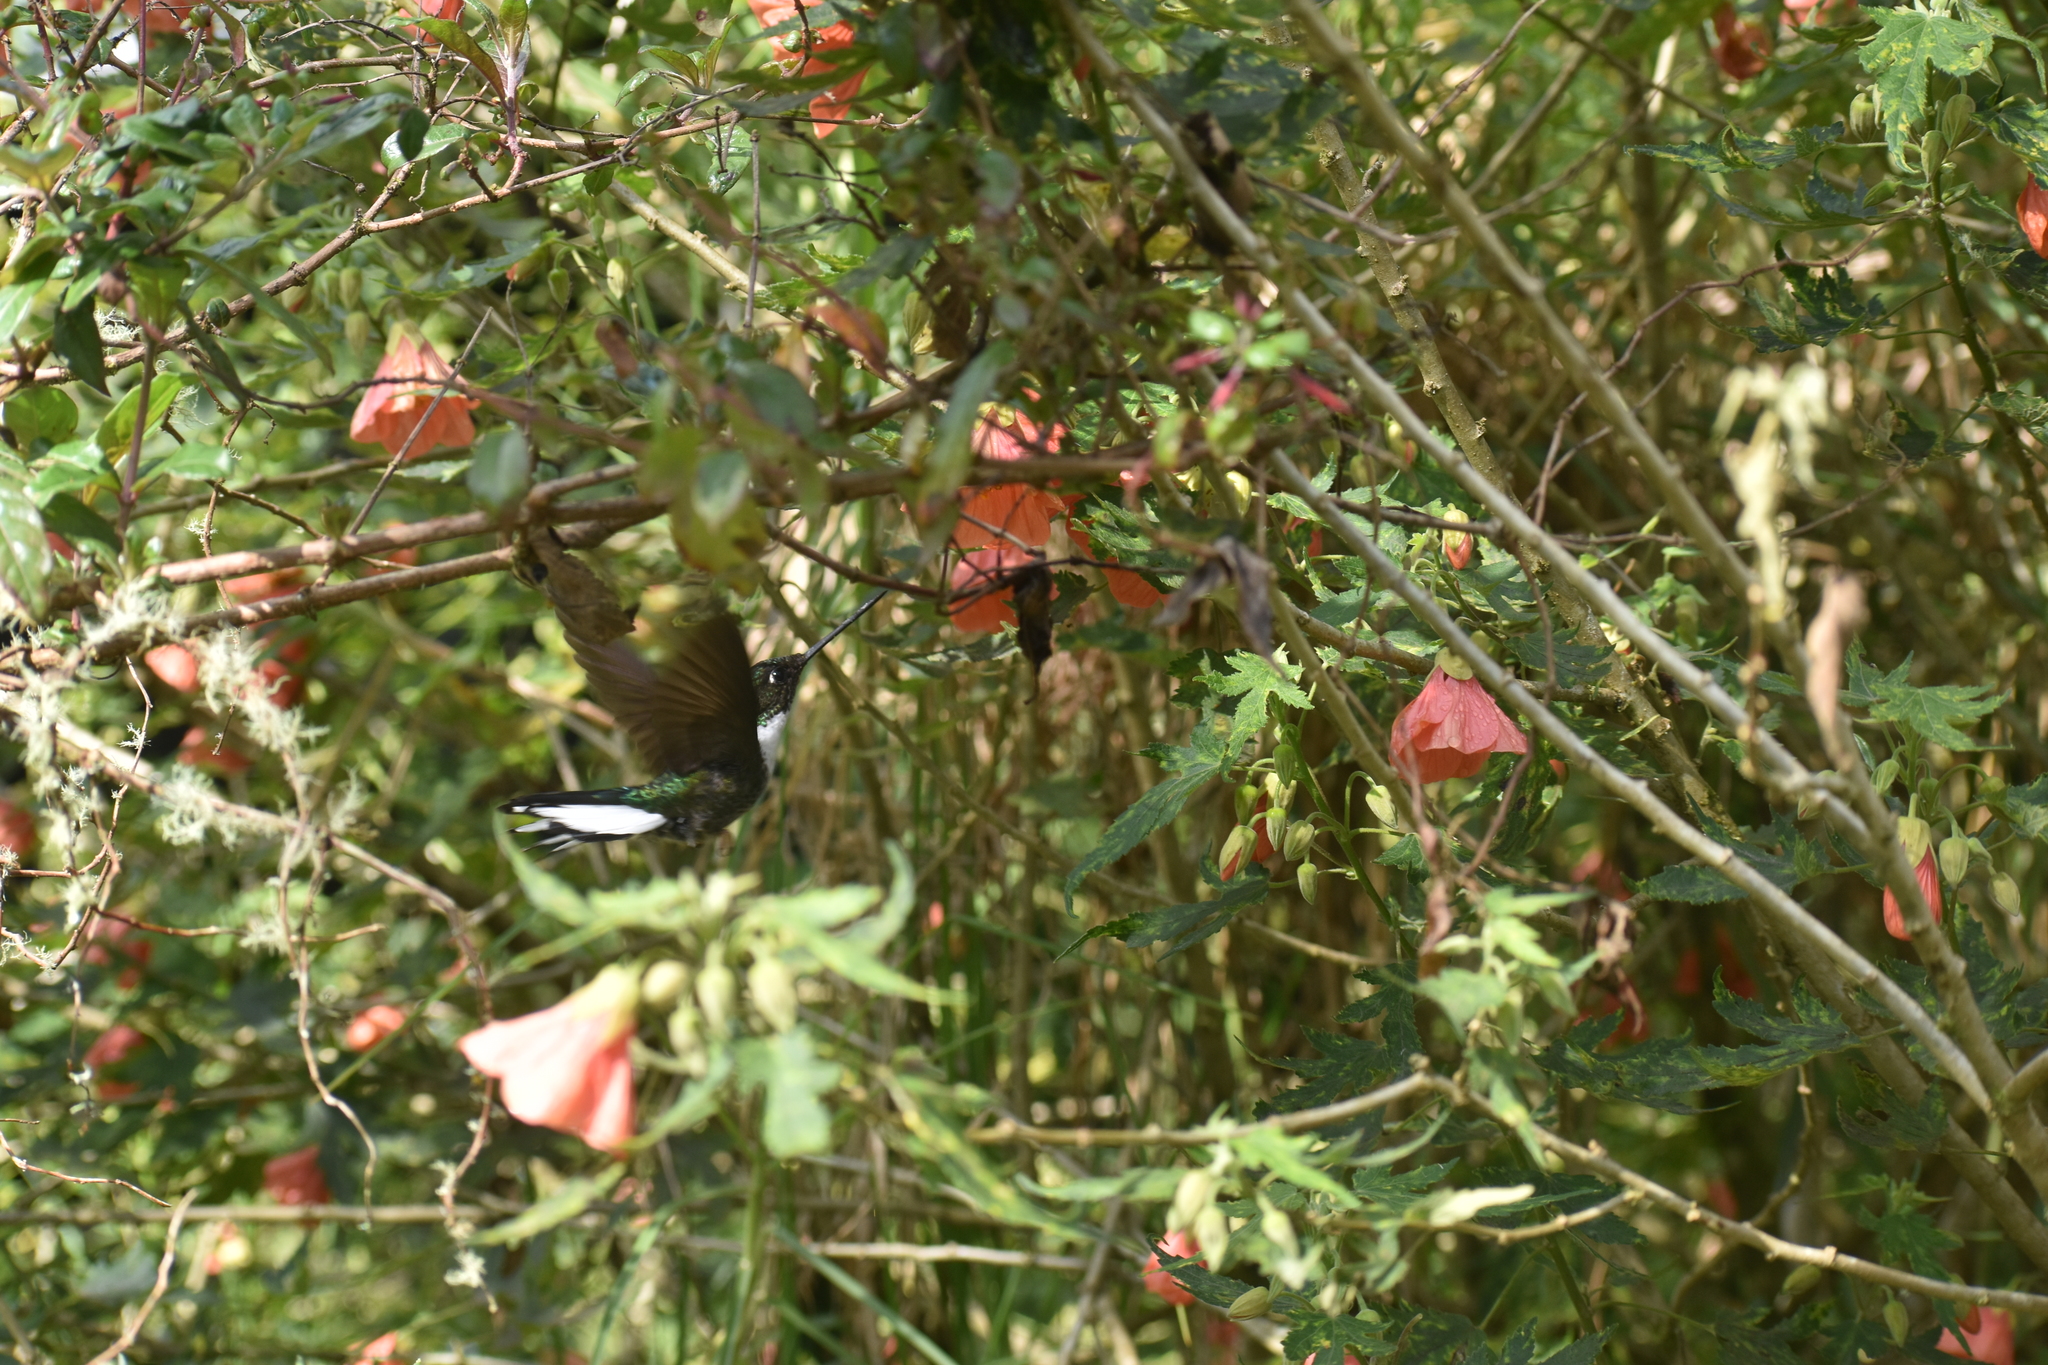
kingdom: Animalia
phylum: Chordata
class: Aves
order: Apodiformes
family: Trochilidae
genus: Coeligena
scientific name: Coeligena torquata
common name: Collared inca
